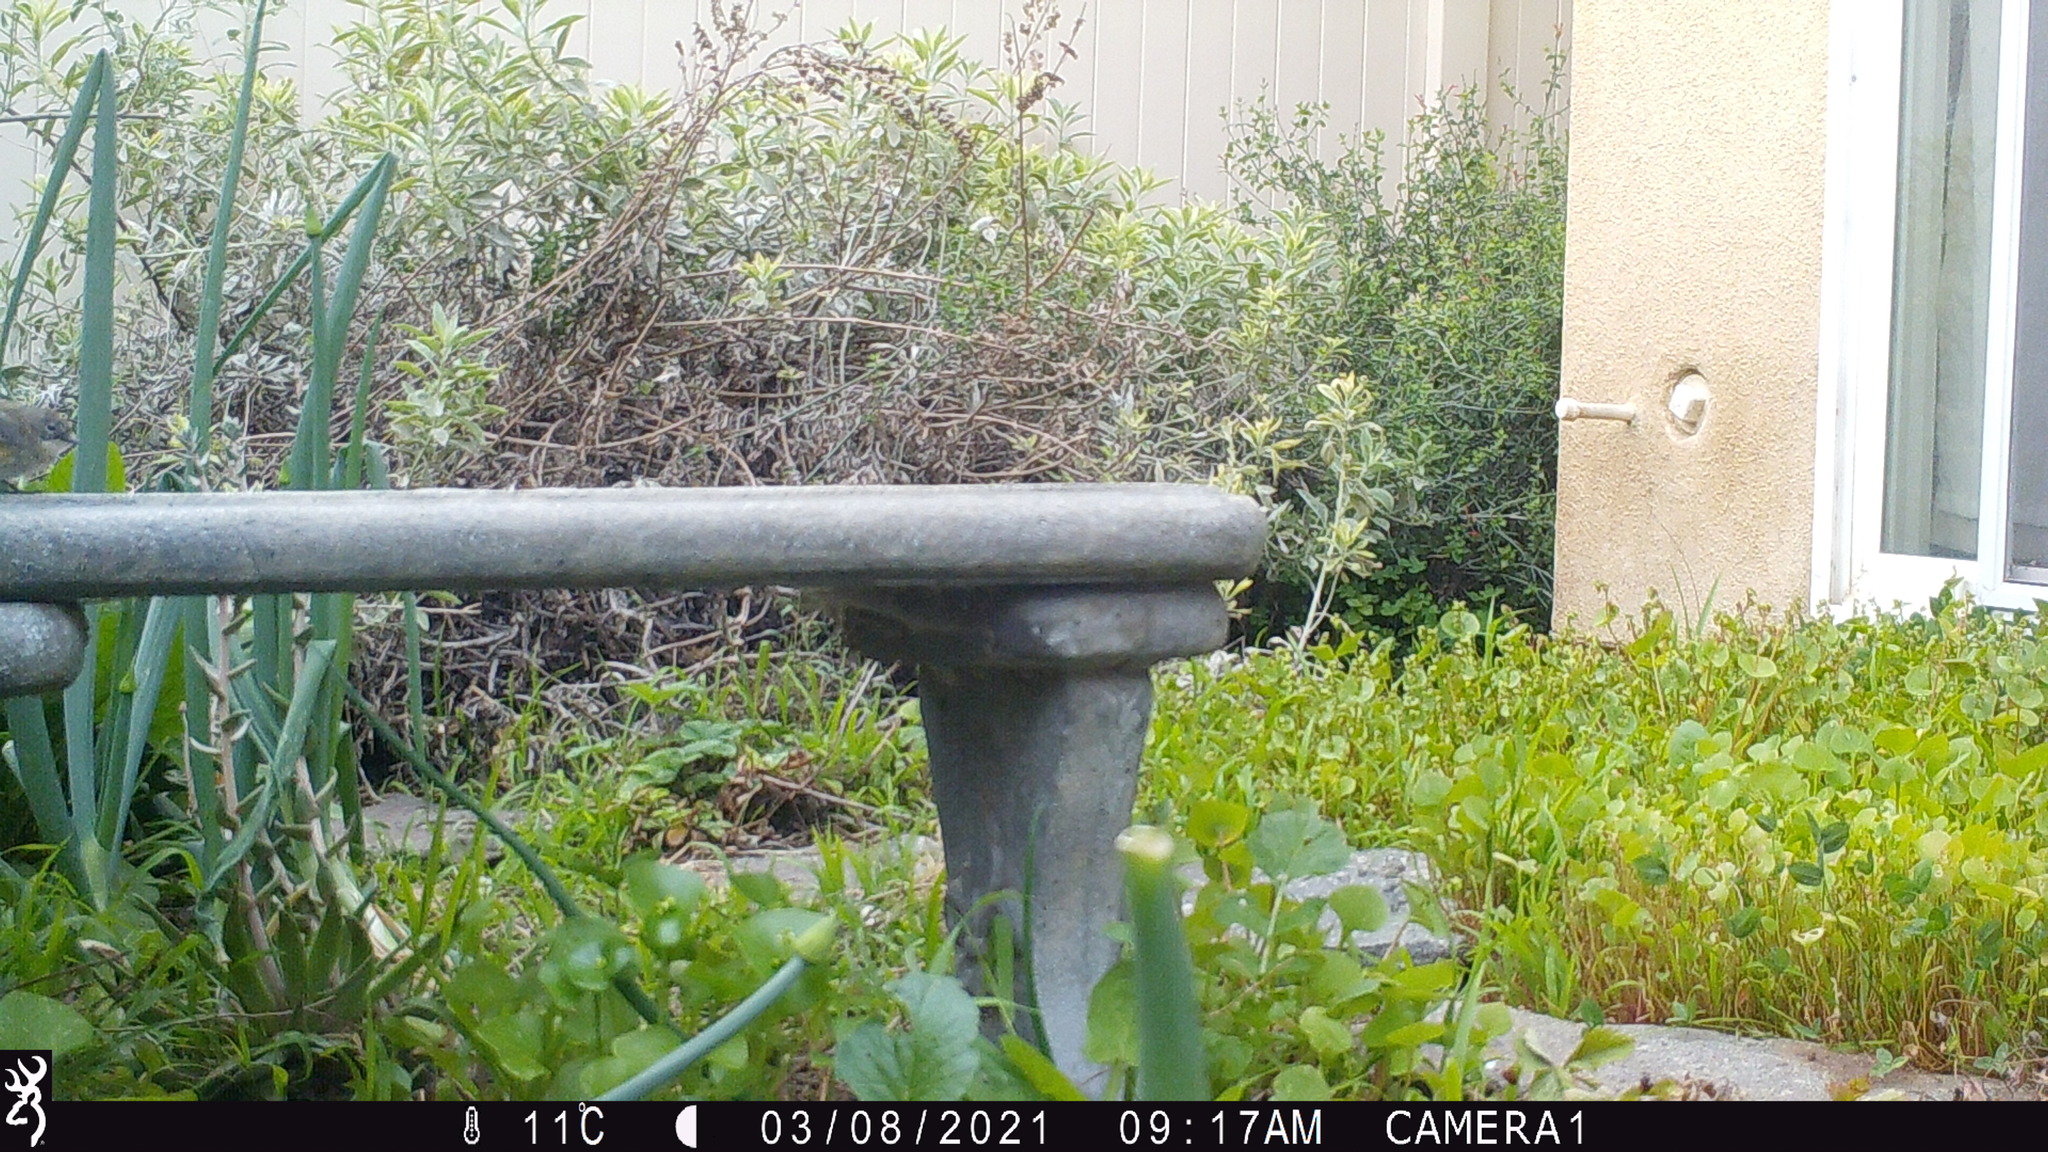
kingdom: Animalia
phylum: Chordata
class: Aves
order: Passeriformes
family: Parulidae
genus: Setophaga
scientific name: Setophaga coronata
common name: Myrtle warbler
